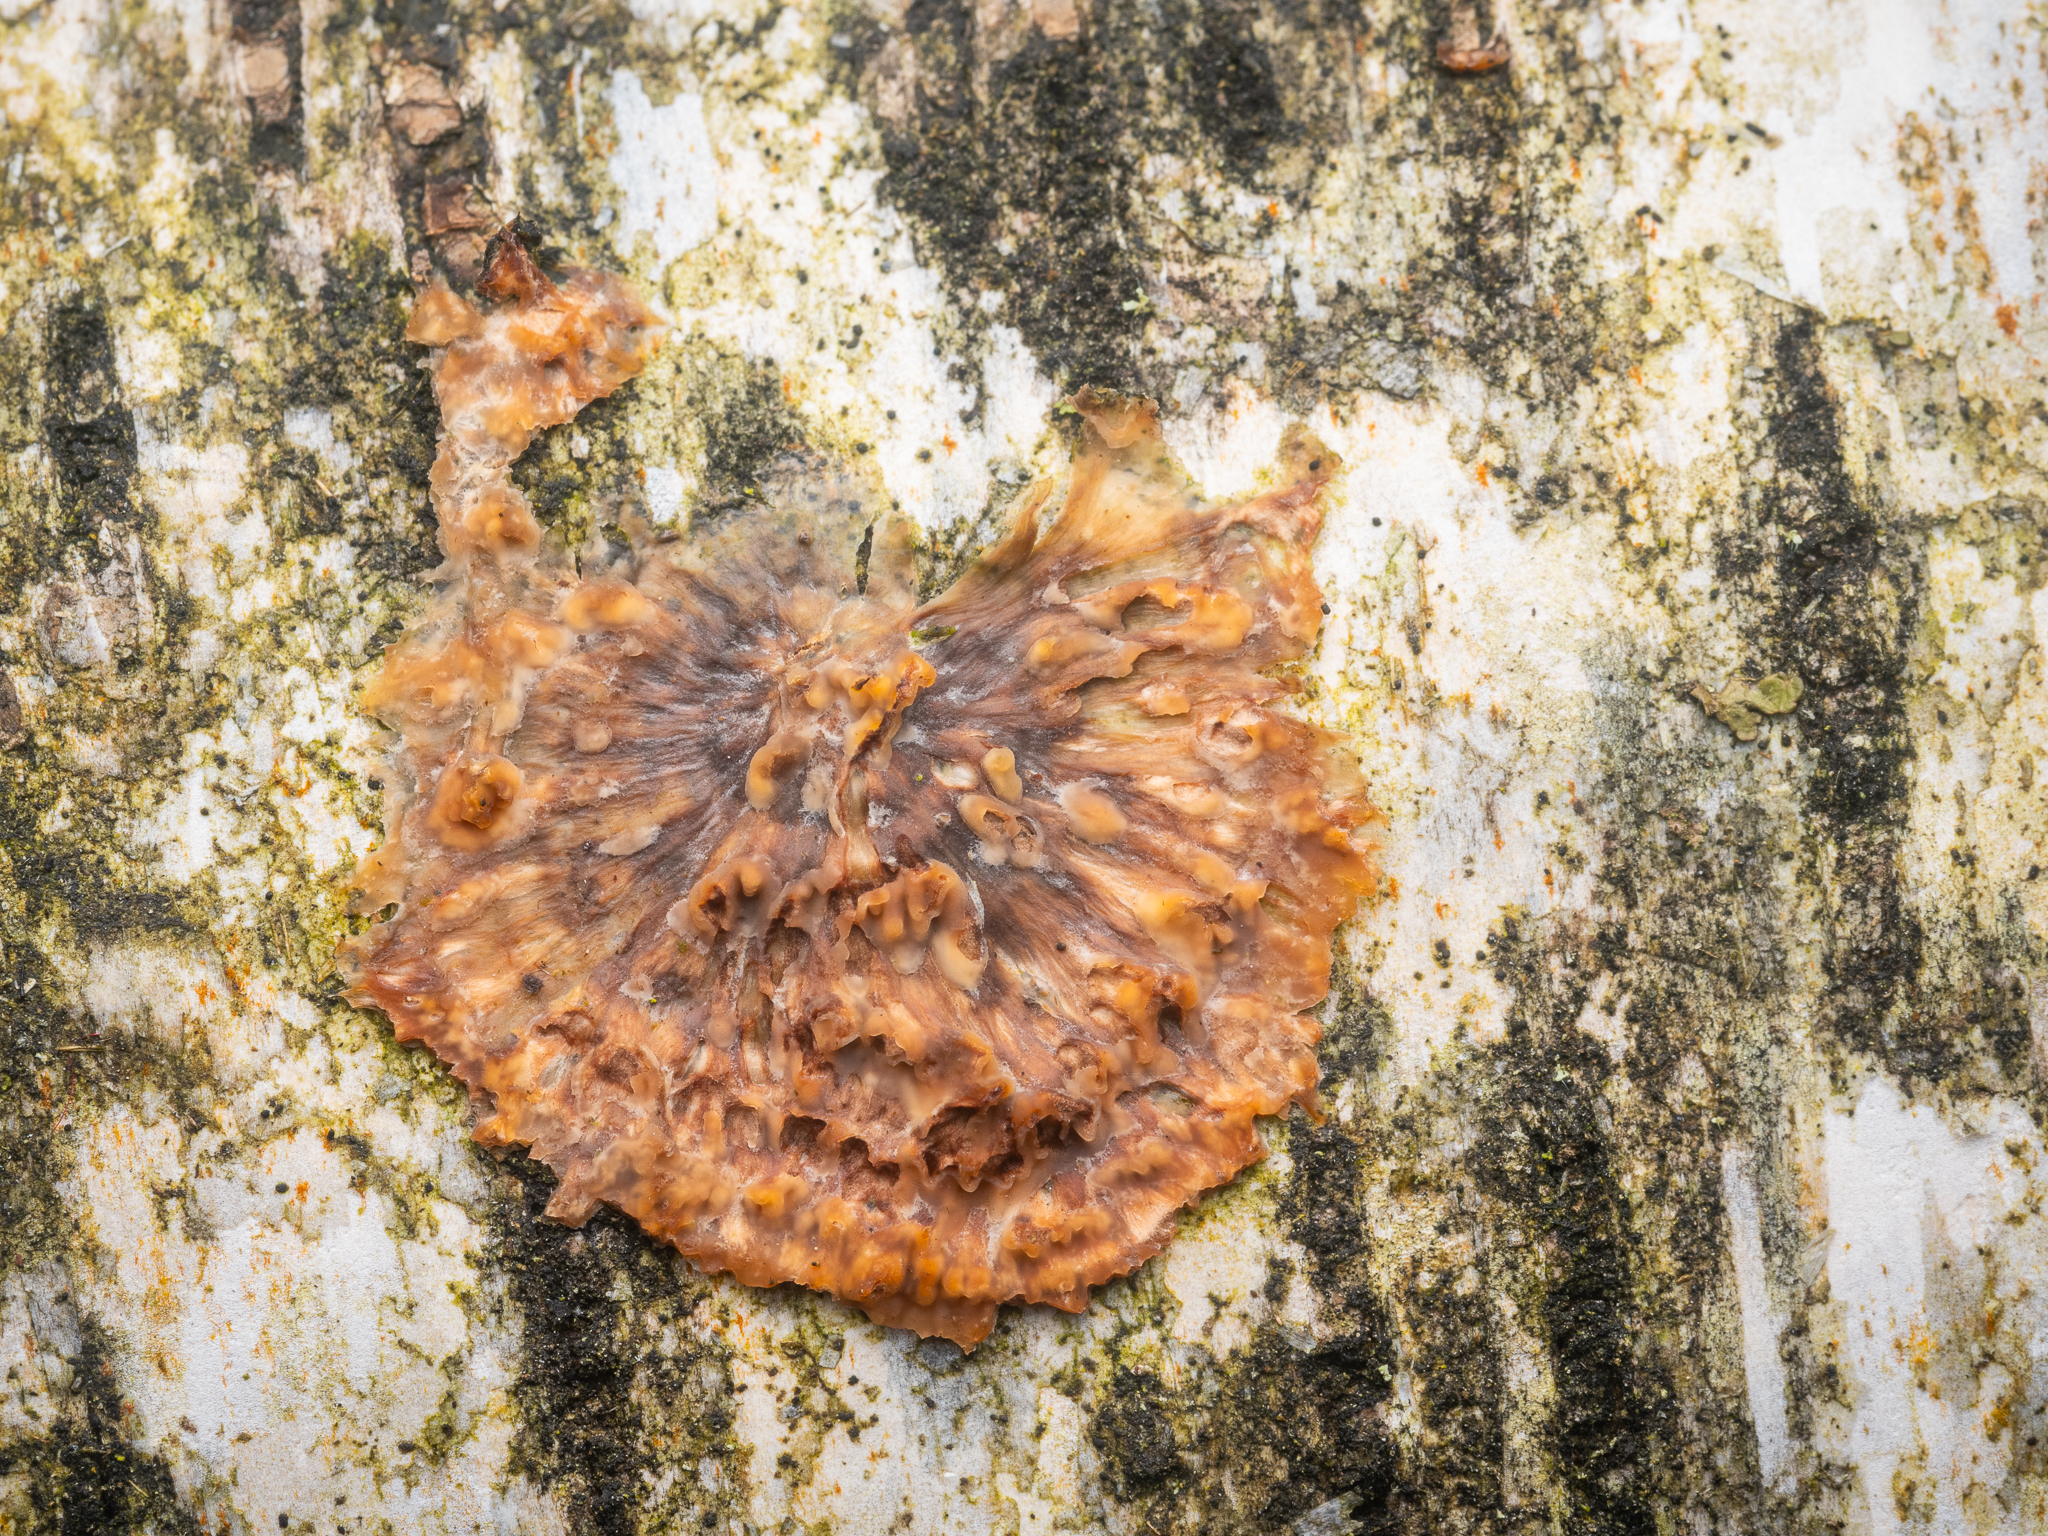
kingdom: Fungi
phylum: Basidiomycota
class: Agaricomycetes
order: Polyporales
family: Meruliaceae
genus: Phlebia
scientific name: Phlebia radiata
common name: Wrinkled crust
